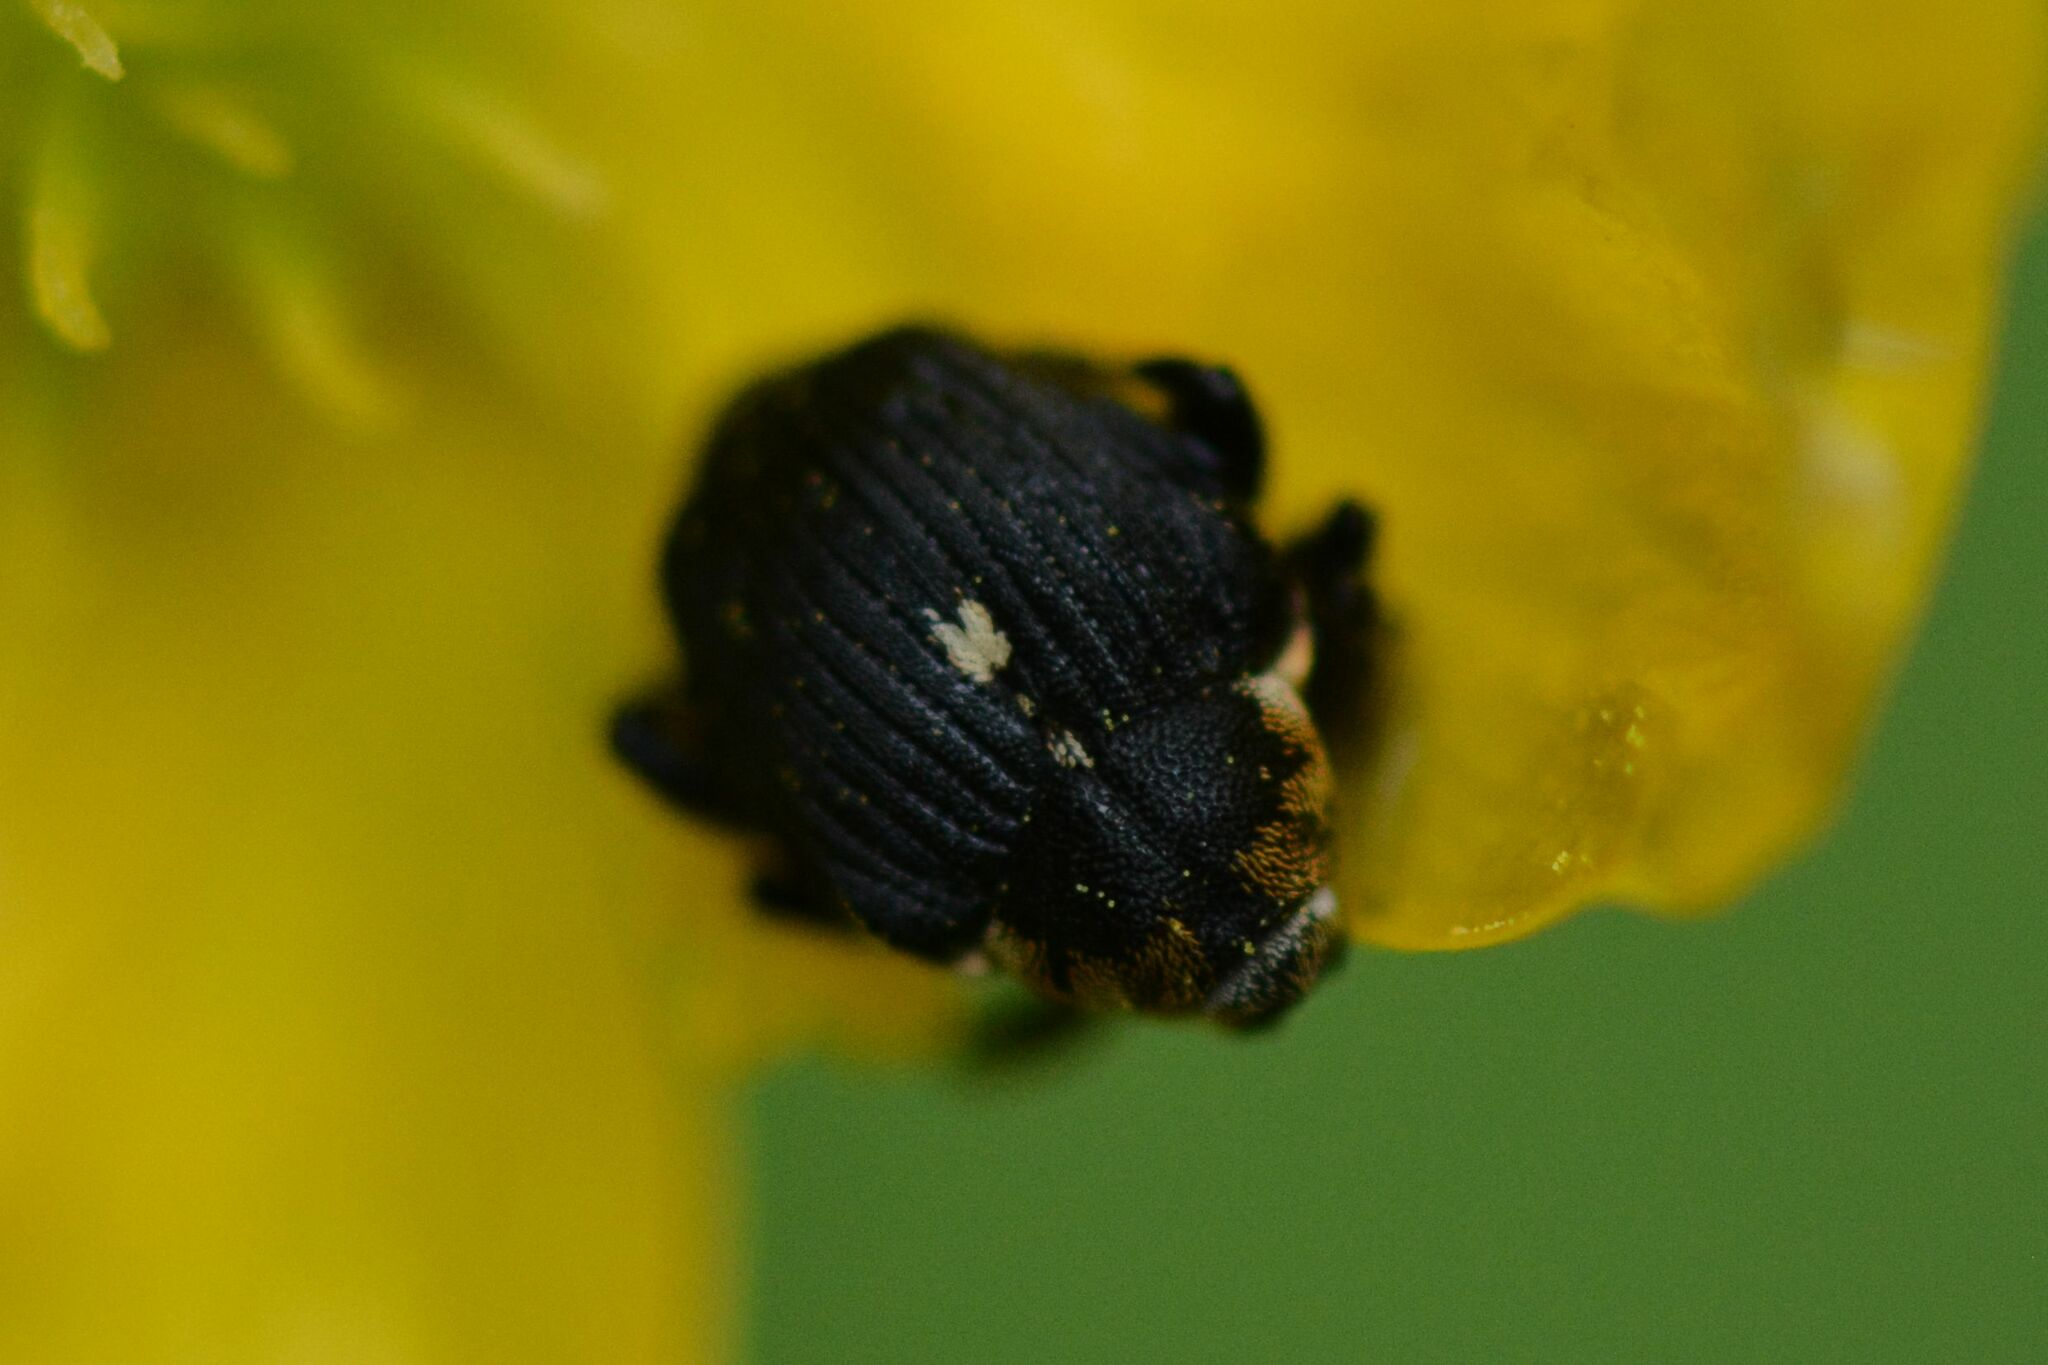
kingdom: Animalia
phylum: Arthropoda
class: Insecta
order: Coleoptera
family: Curculionidae
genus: Mononychus
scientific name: Mononychus punctumalbum
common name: Iris weevil
